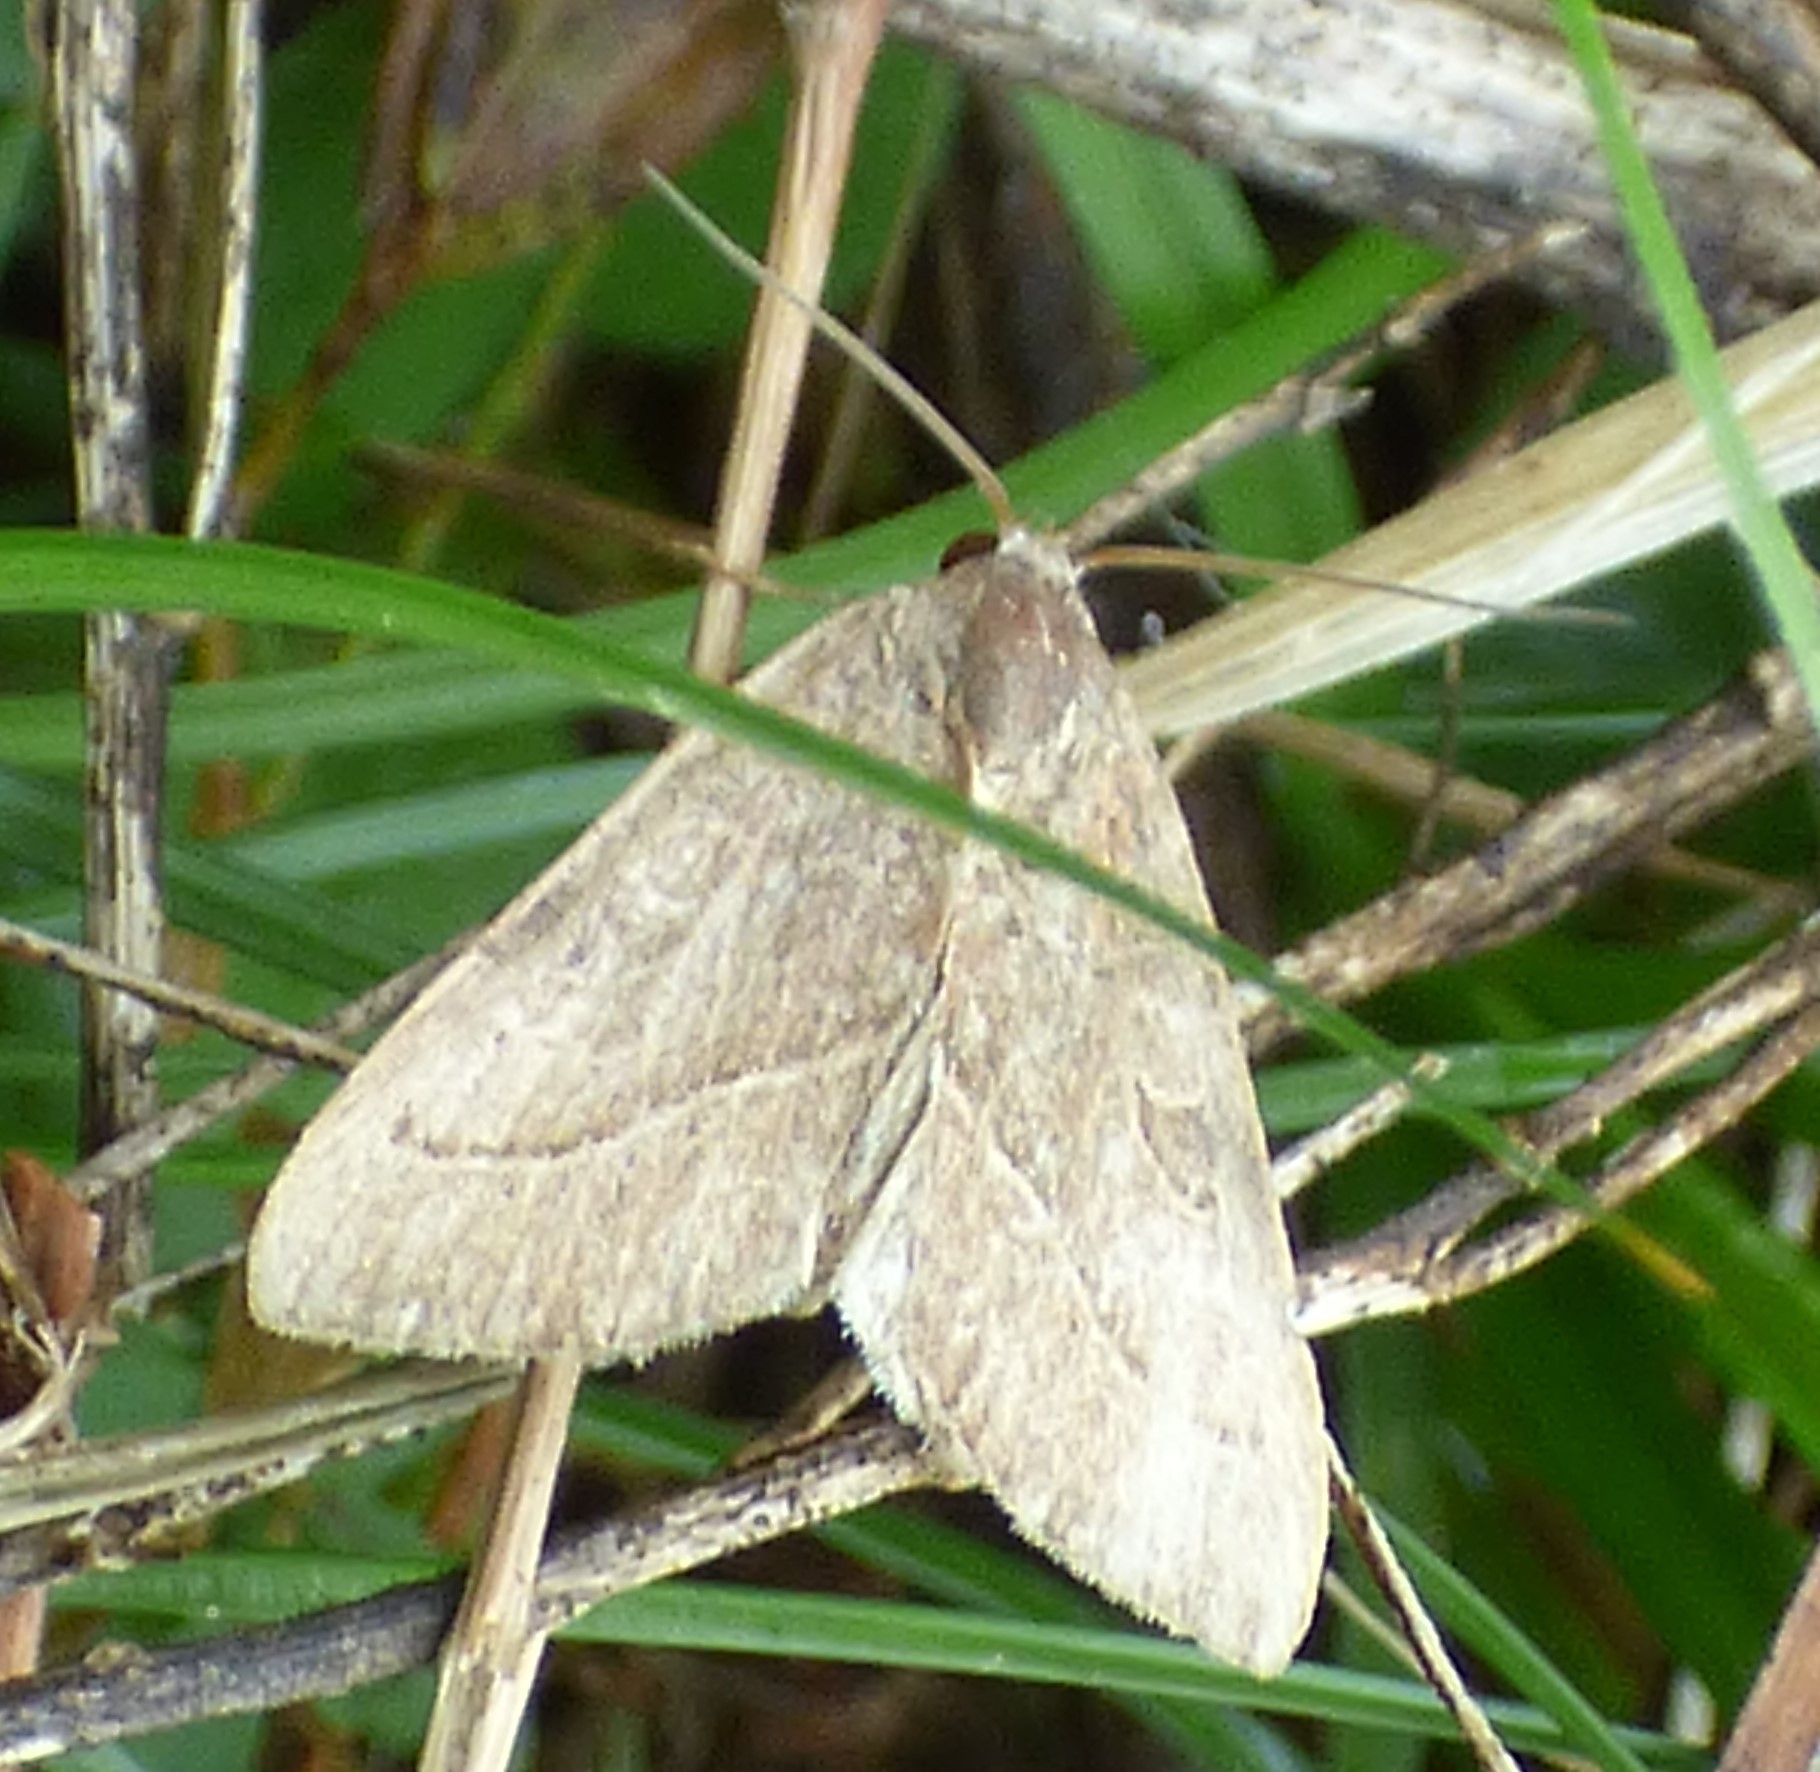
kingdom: Animalia
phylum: Arthropoda
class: Insecta
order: Lepidoptera
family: Noctuidae
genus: Galgula
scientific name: Galgula partita
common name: Wedgeling
